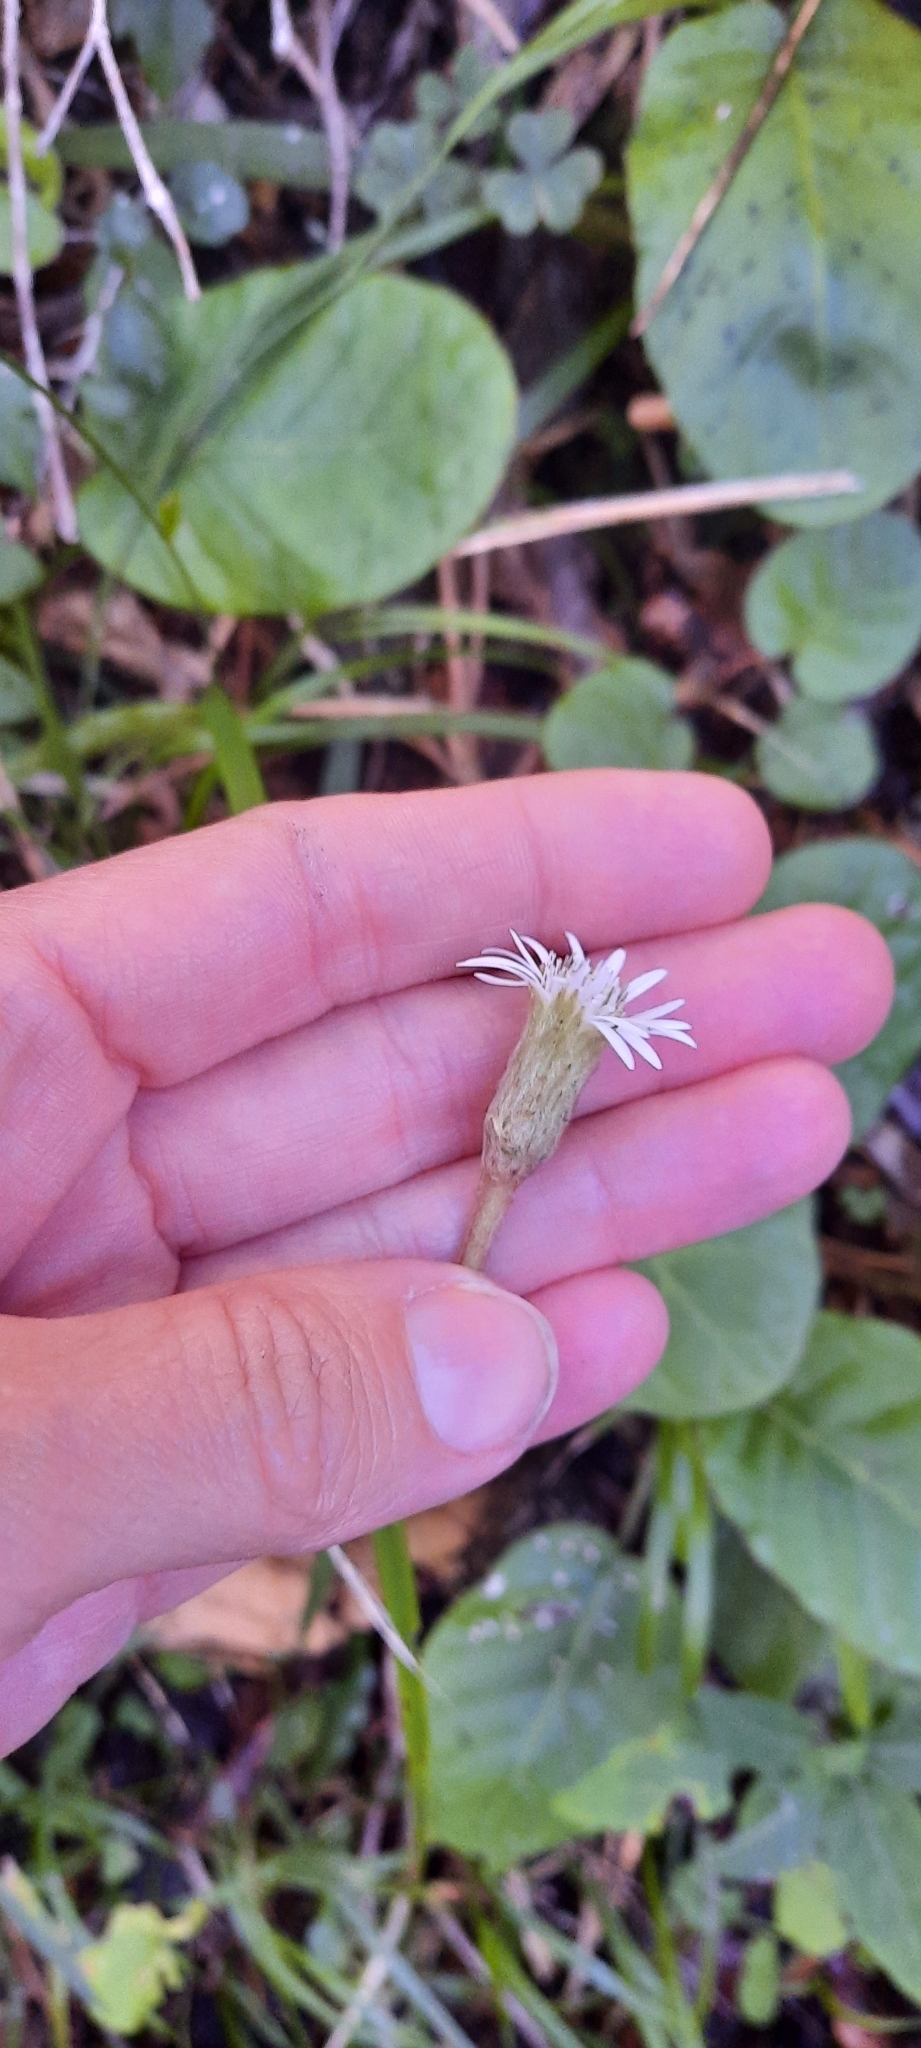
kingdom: Plantae
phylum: Tracheophyta
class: Magnoliopsida
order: Asterales
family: Asteraceae
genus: Piloselloides
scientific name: Piloselloides cordata
